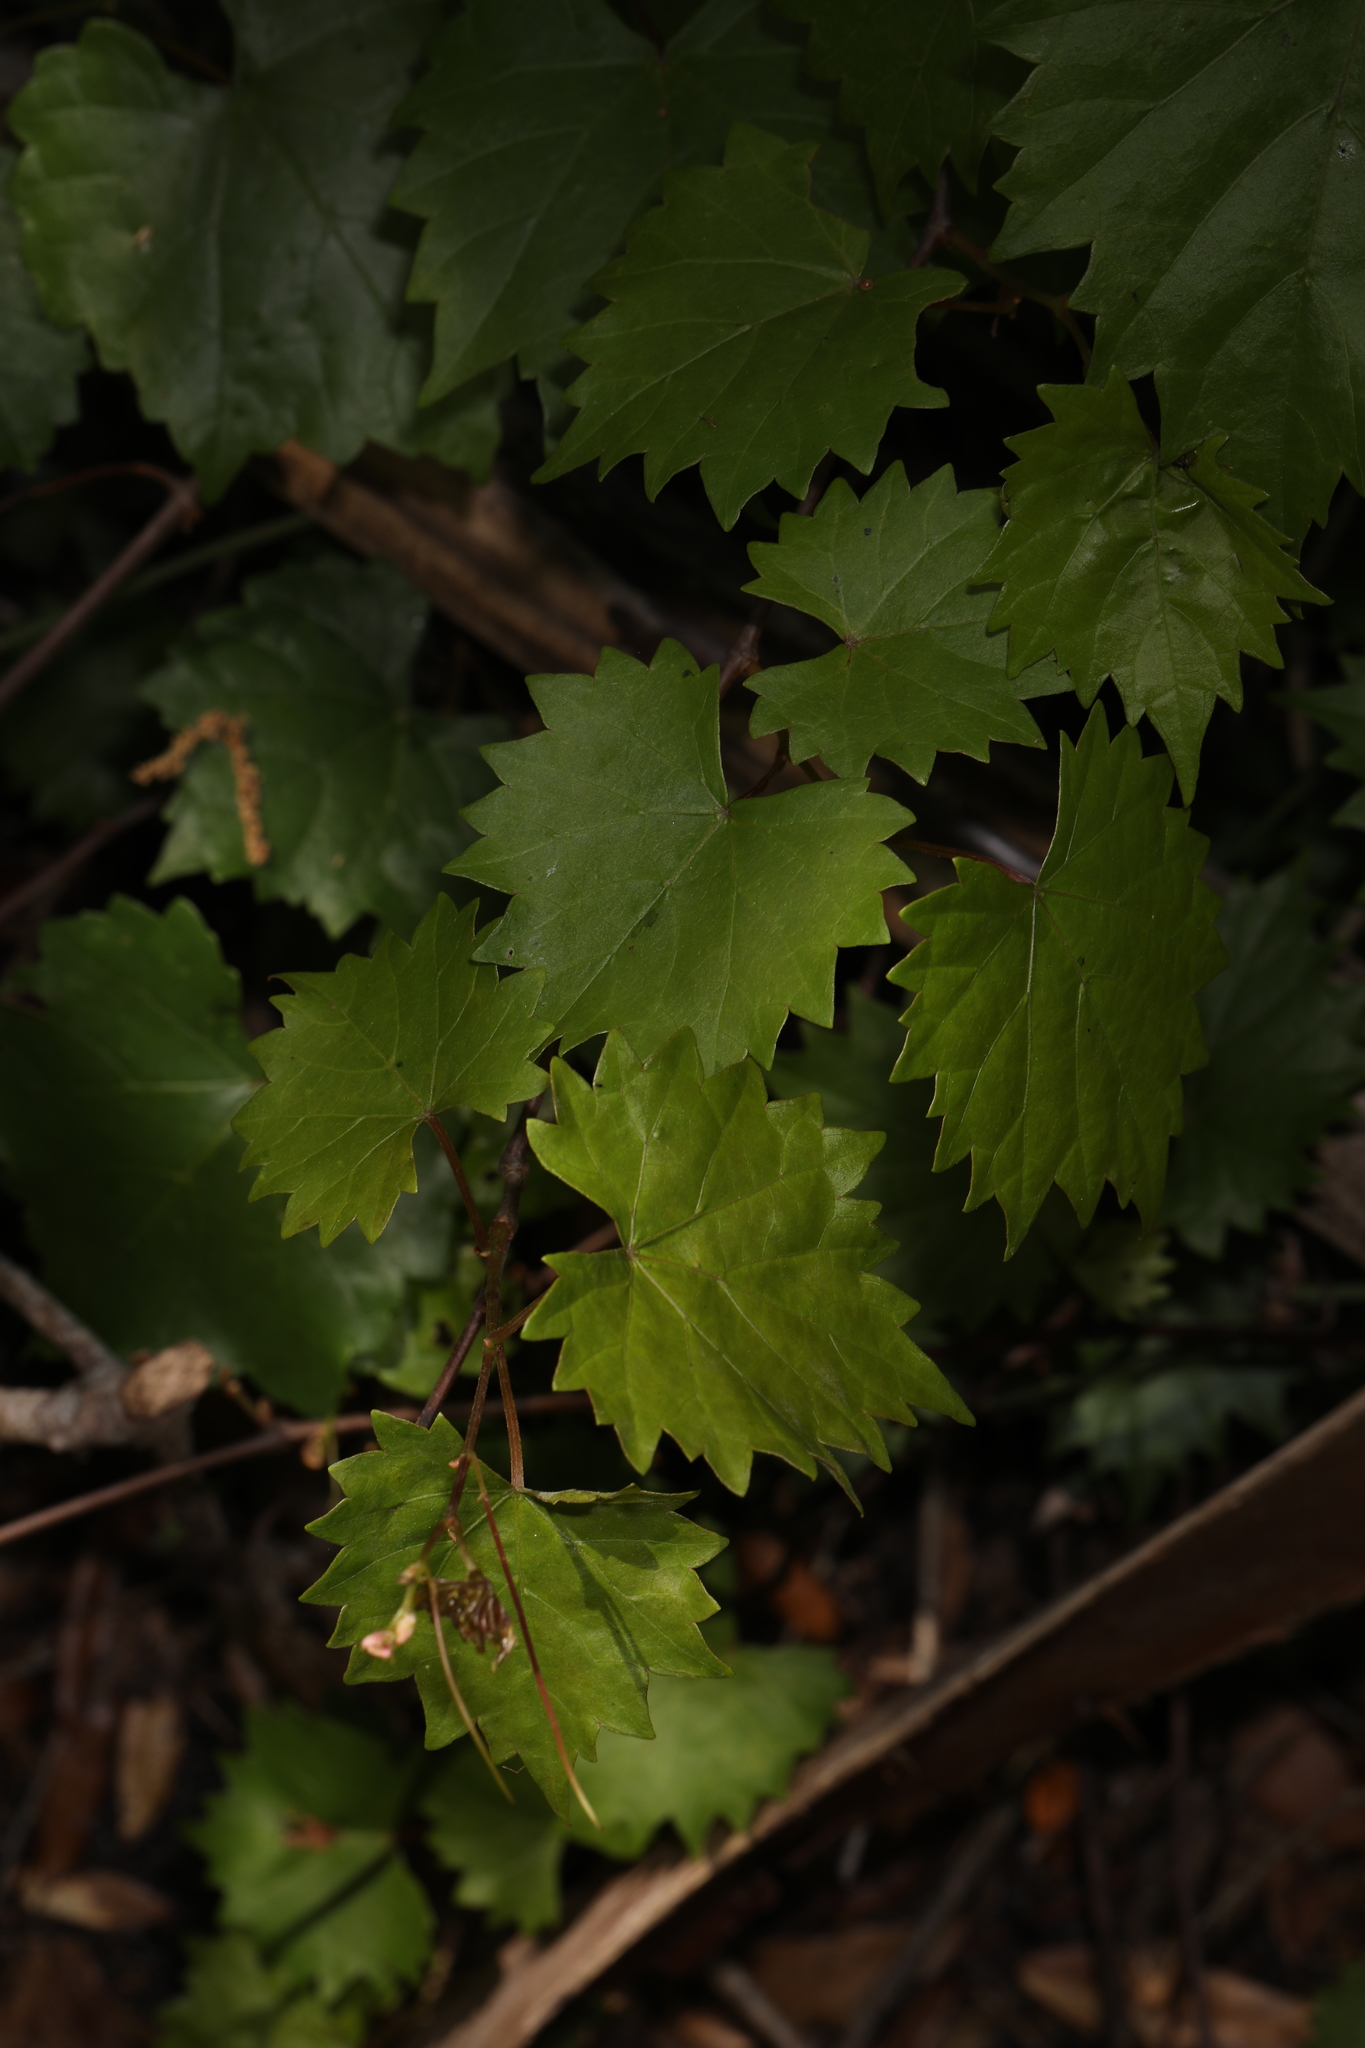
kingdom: Plantae
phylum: Tracheophyta
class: Magnoliopsida
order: Vitales
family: Vitaceae
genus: Vitis
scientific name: Vitis rotundifolia
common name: Muscadine grape
